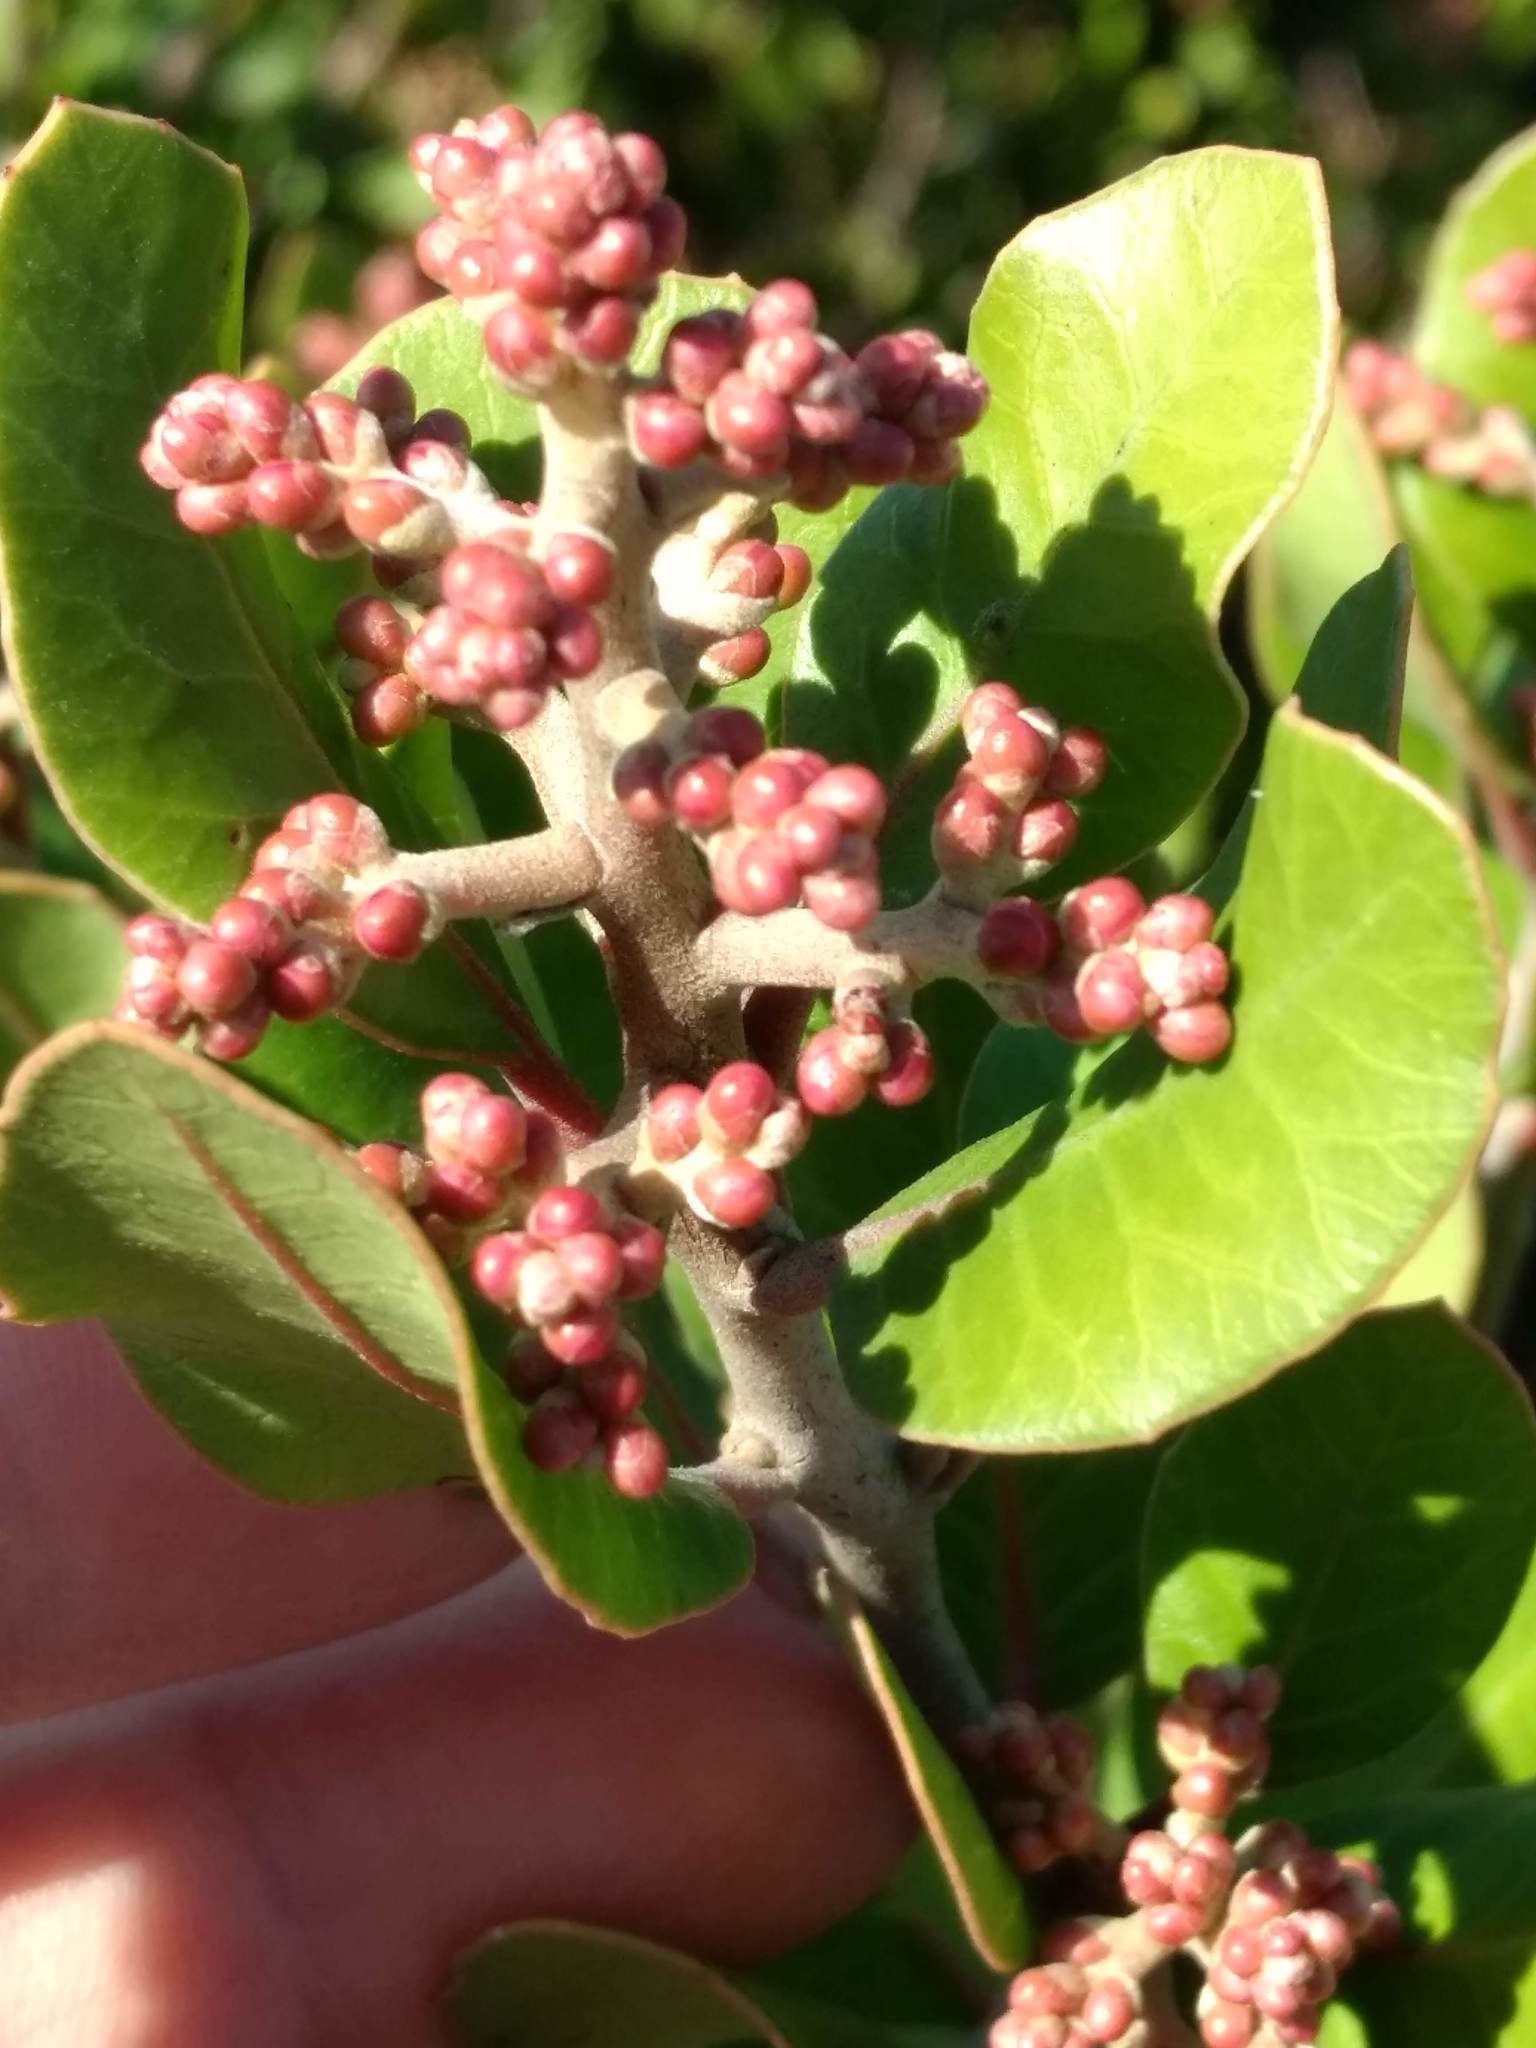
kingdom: Plantae
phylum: Tracheophyta
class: Magnoliopsida
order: Sapindales
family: Anacardiaceae
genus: Rhus
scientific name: Rhus integrifolia
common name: Lemonade sumac
